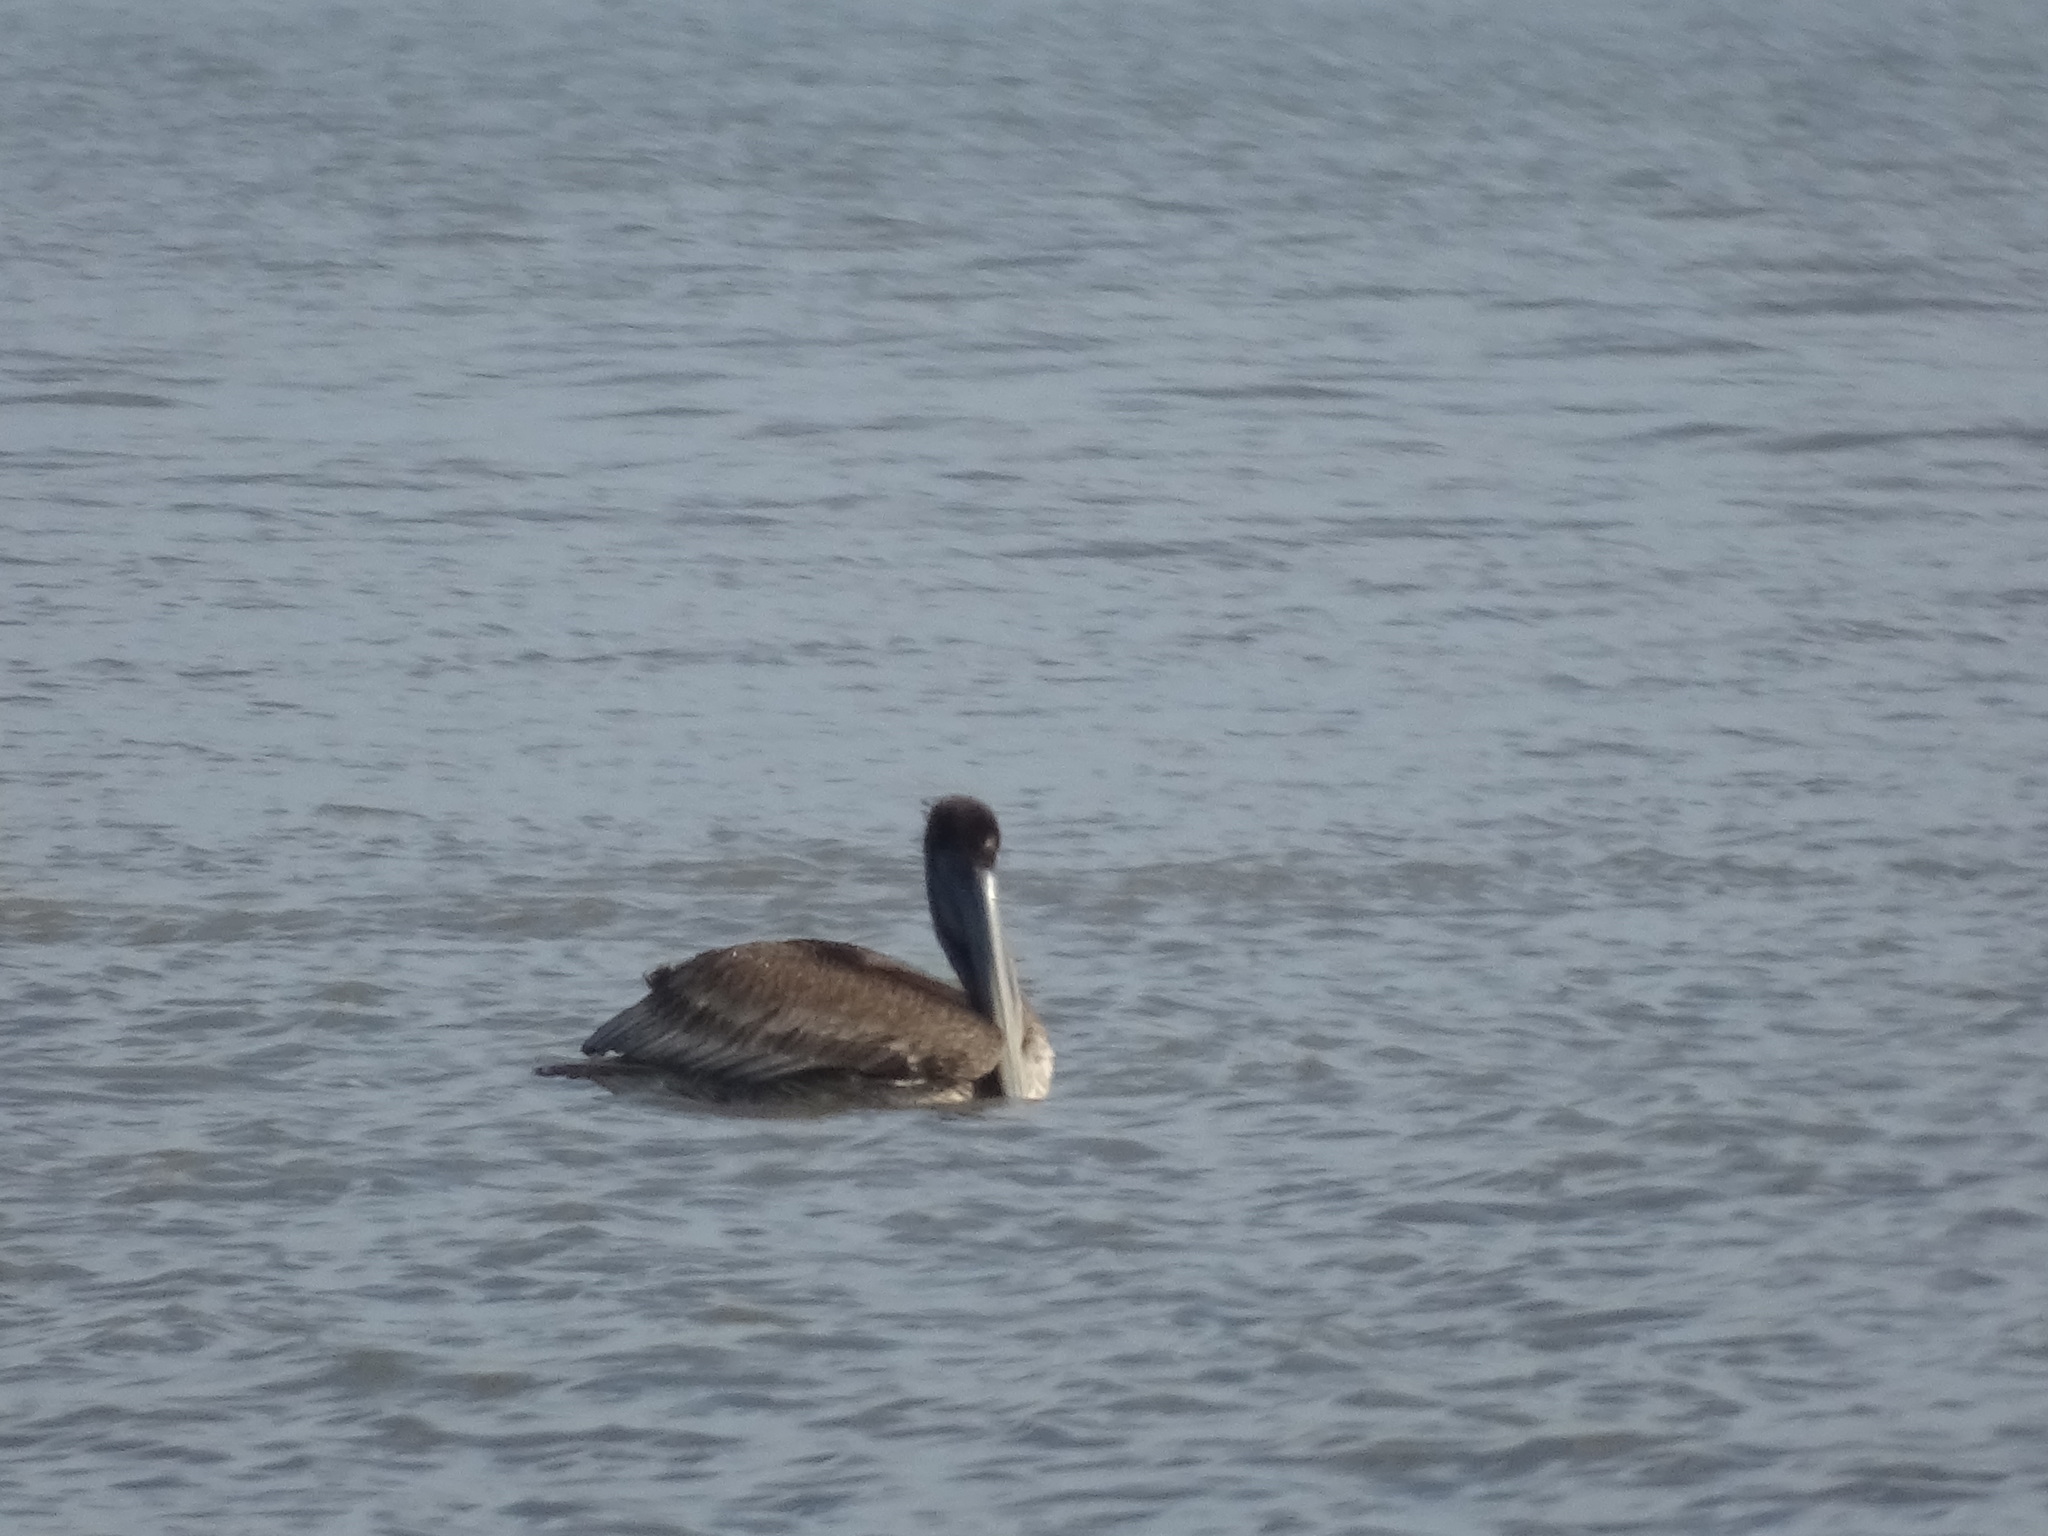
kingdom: Animalia
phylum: Chordata
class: Aves
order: Pelecaniformes
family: Pelecanidae
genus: Pelecanus
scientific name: Pelecanus occidentalis
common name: Brown pelican
